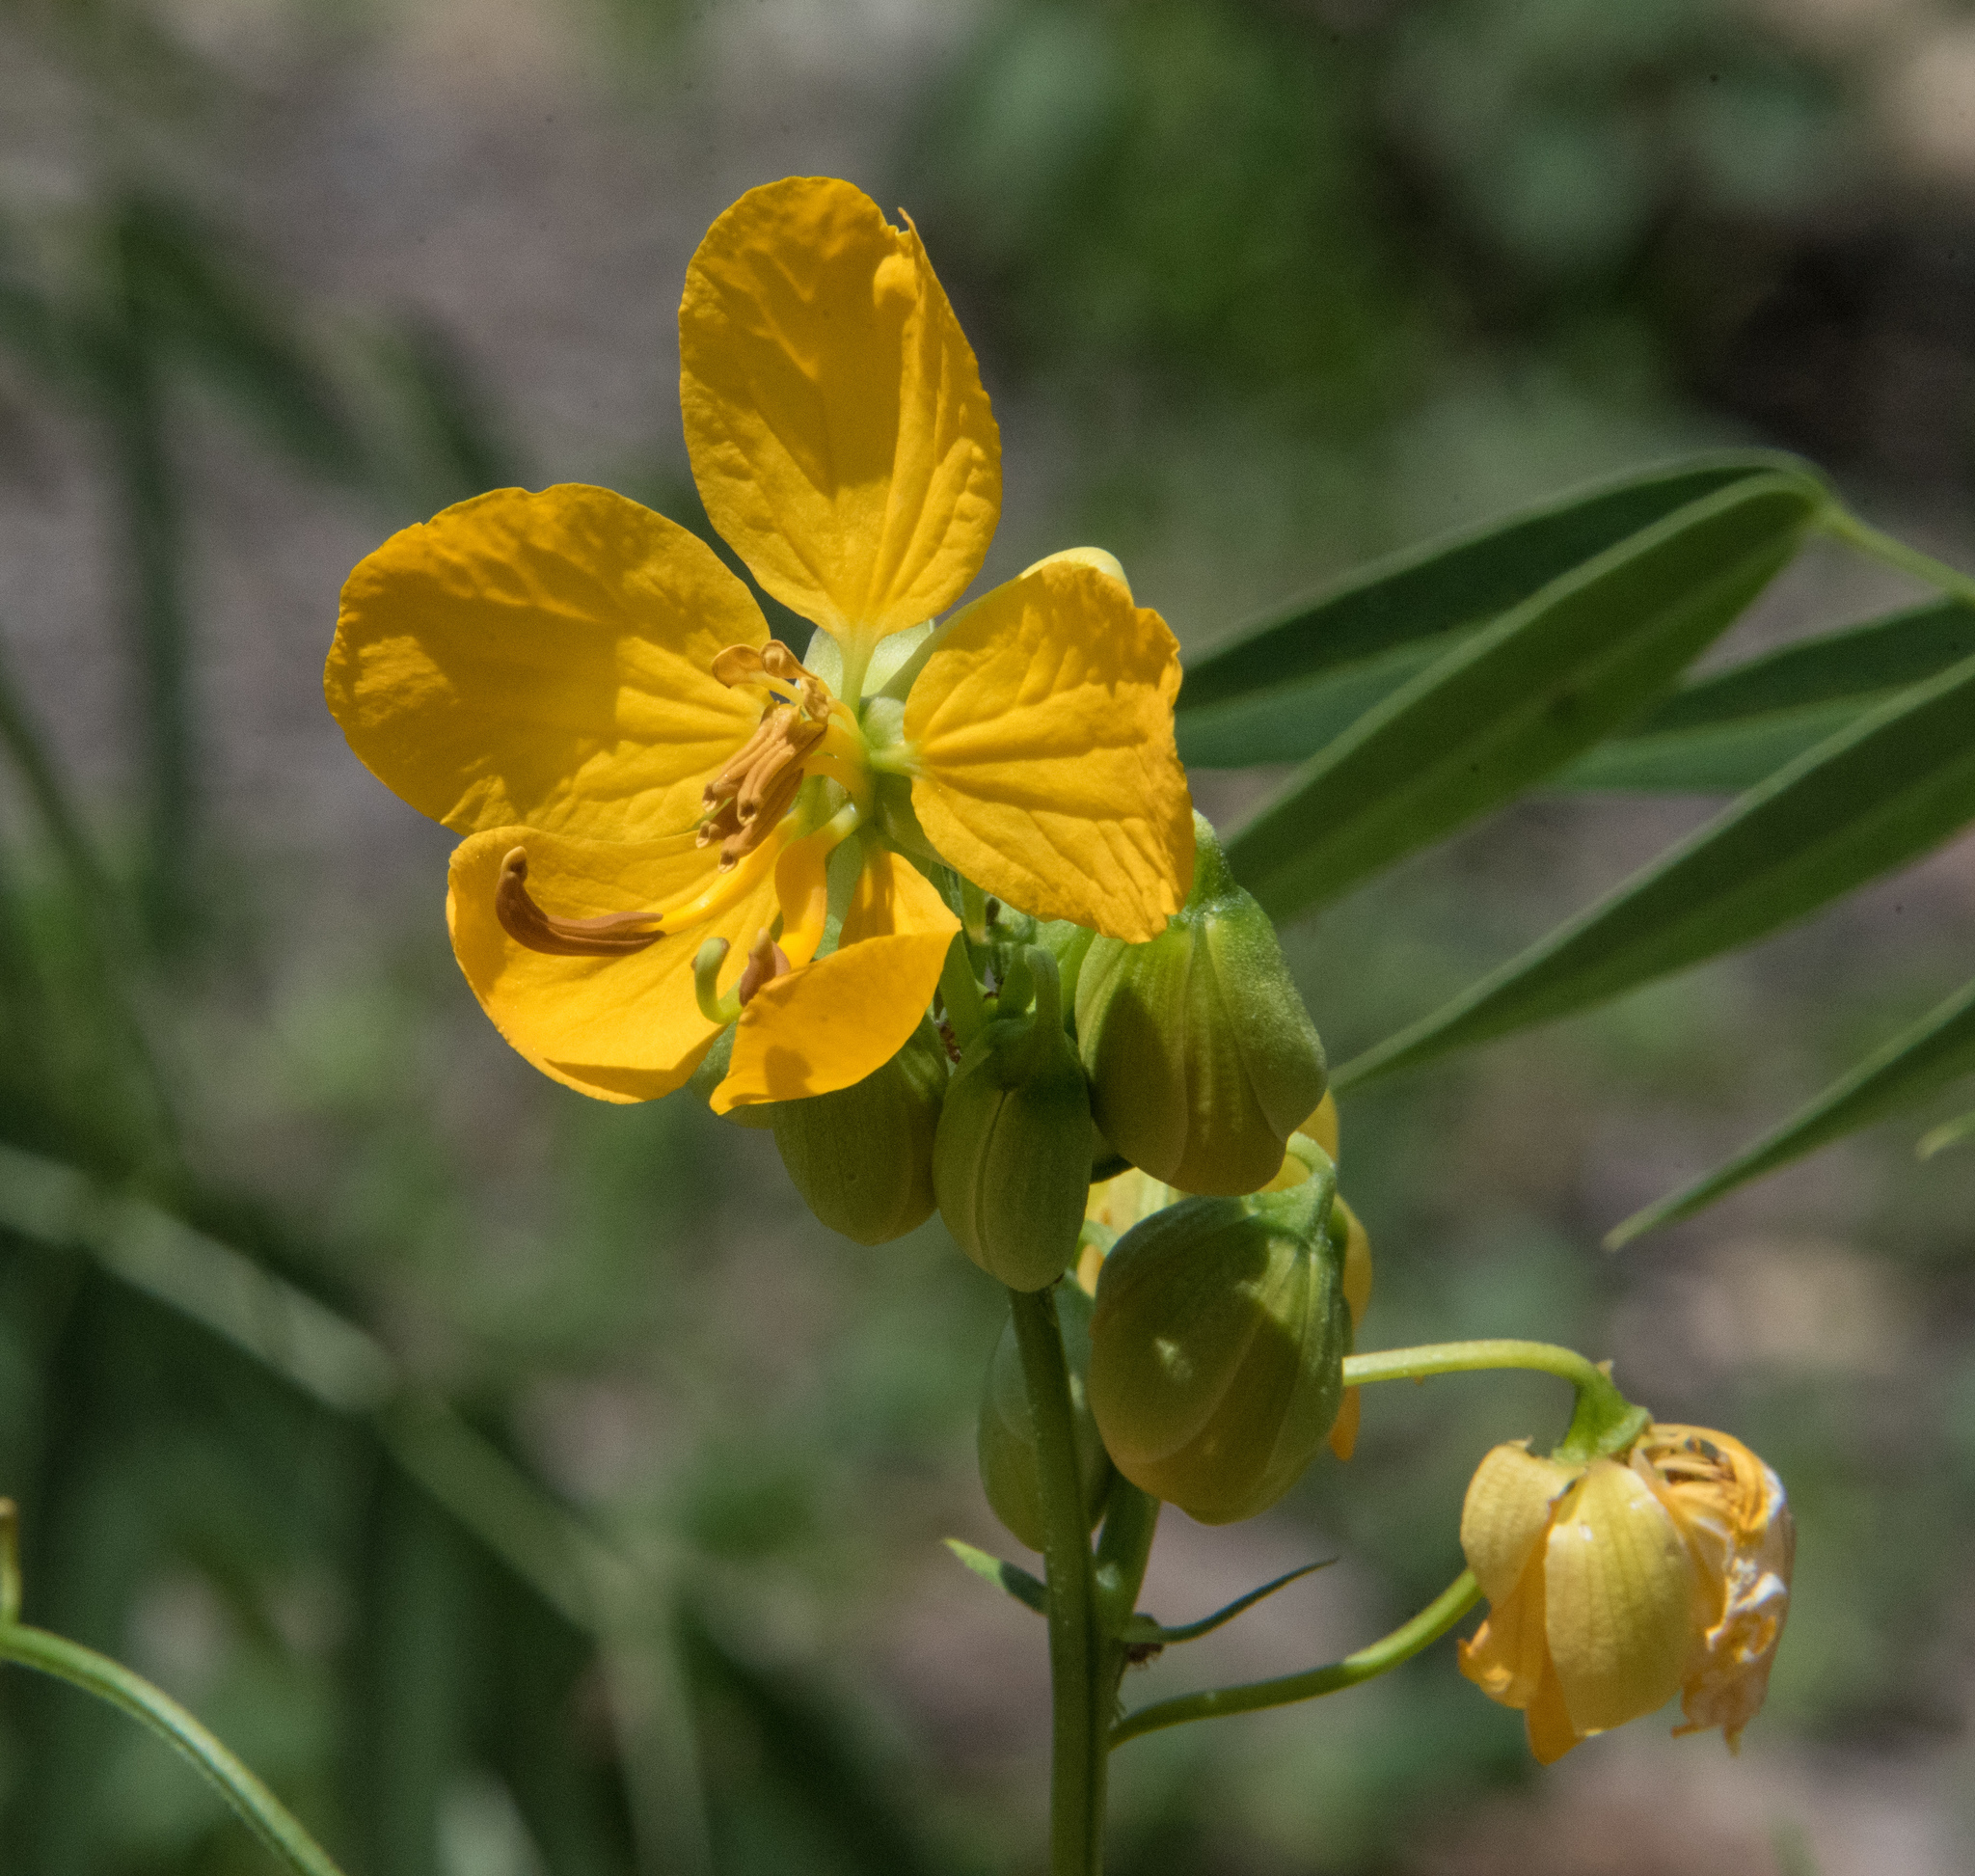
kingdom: Plantae
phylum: Tracheophyta
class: Magnoliopsida
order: Fabales
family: Fabaceae
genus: Senna
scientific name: Senna hirsuta
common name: Woolly senna
